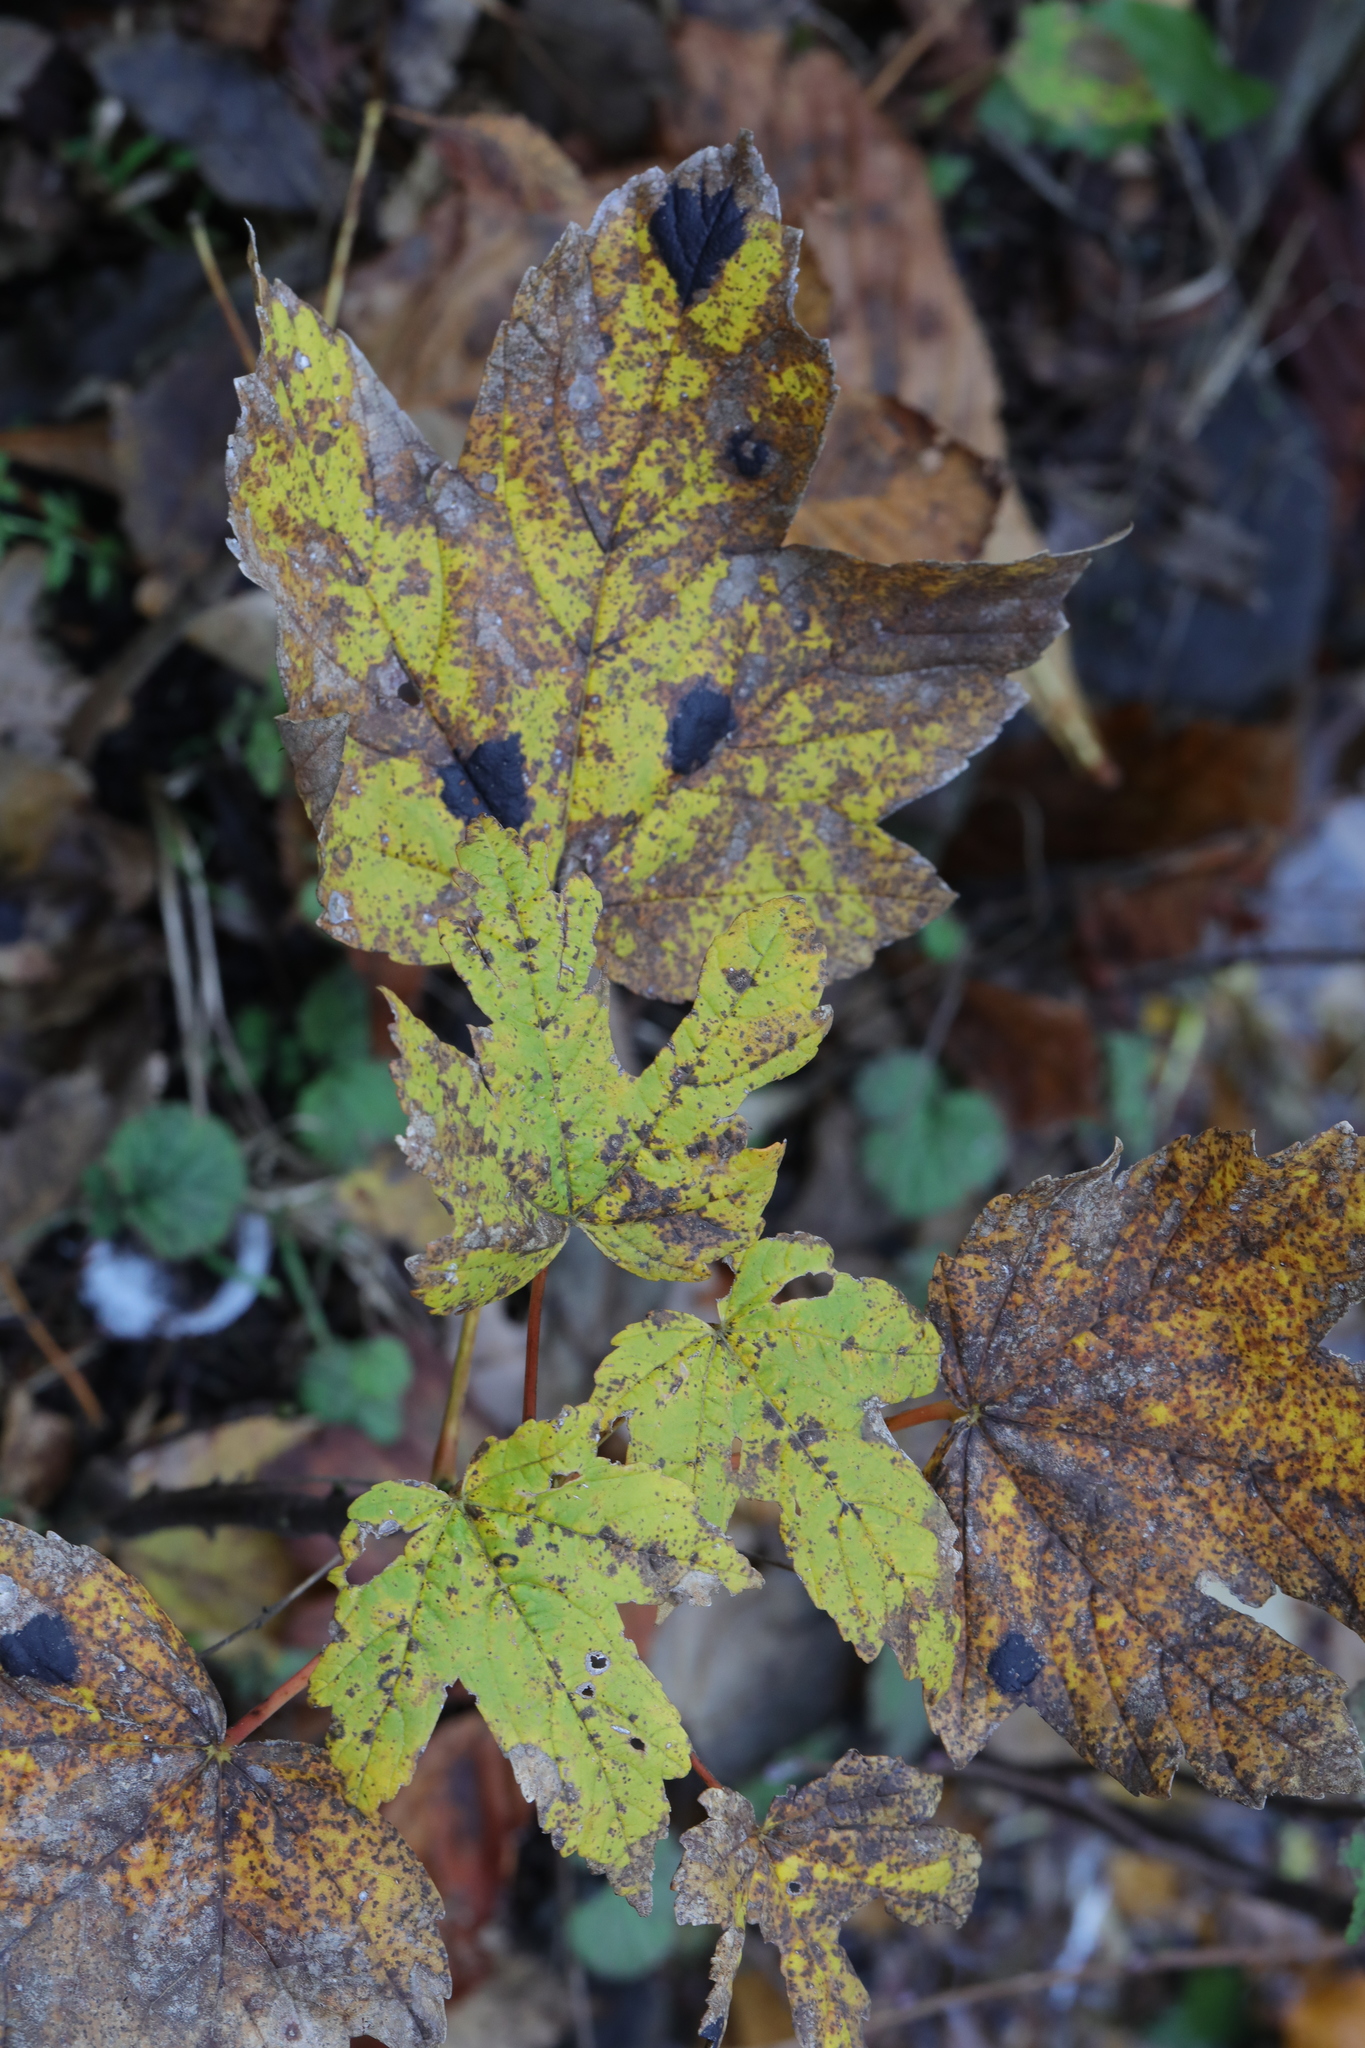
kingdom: Plantae
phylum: Tracheophyta
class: Magnoliopsida
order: Sapindales
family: Sapindaceae
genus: Acer
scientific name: Acer pseudoplatanus
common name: Sycamore
